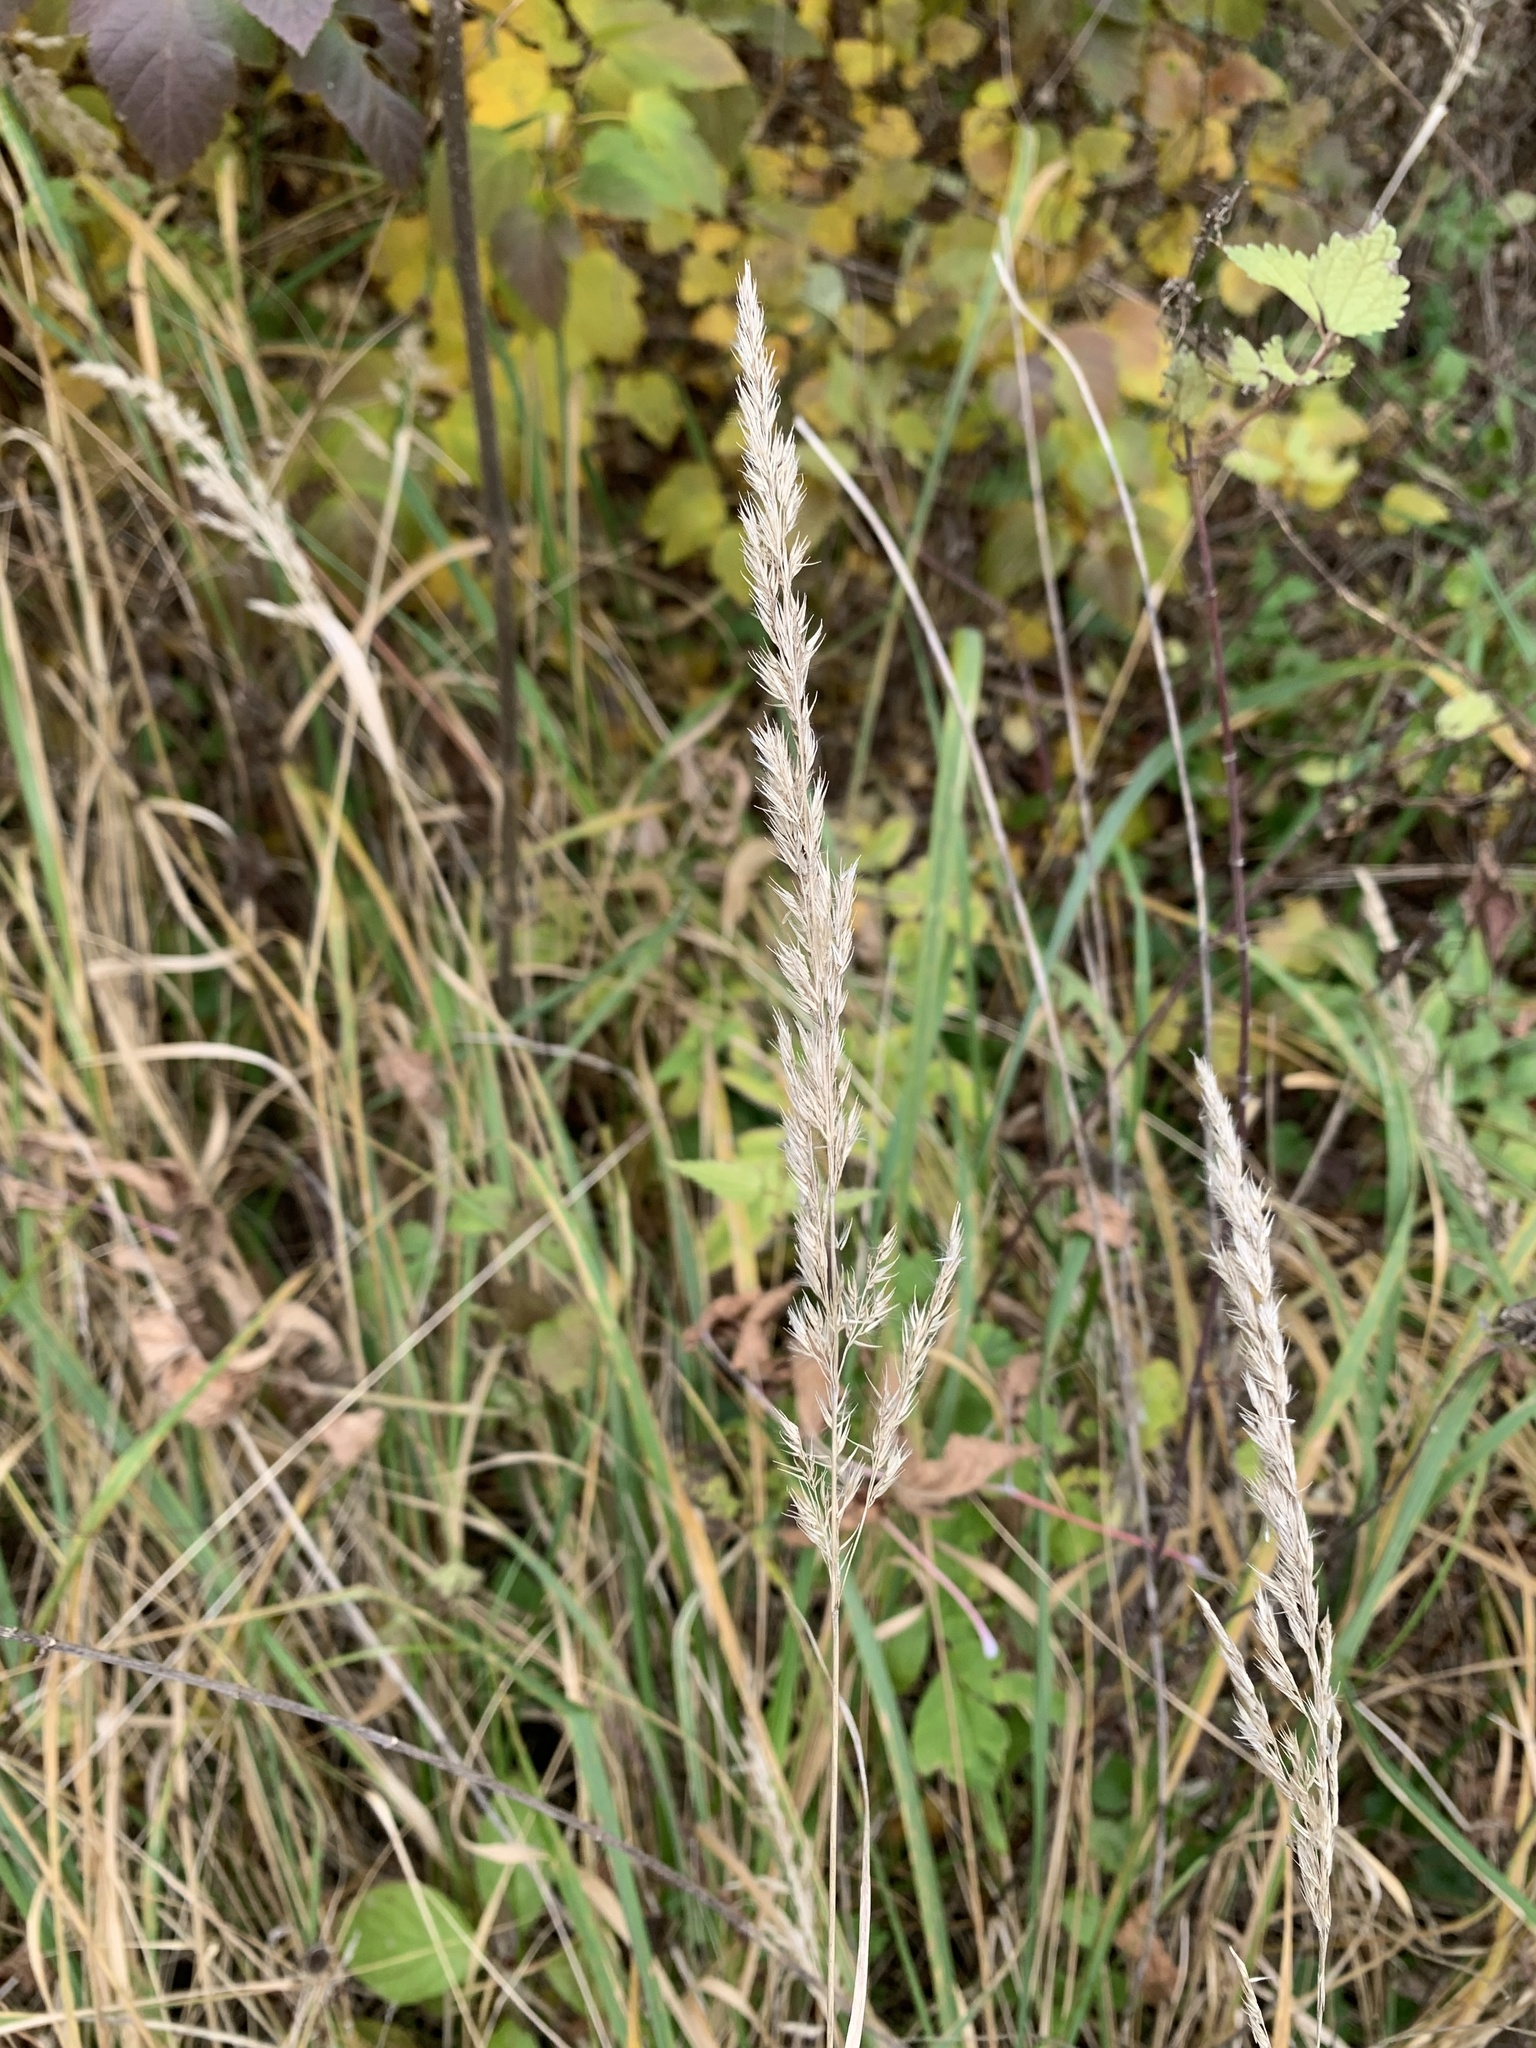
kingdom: Plantae
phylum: Tracheophyta
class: Liliopsida
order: Poales
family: Poaceae
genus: Calamagrostis
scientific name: Calamagrostis epigejos
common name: Wood small-reed
